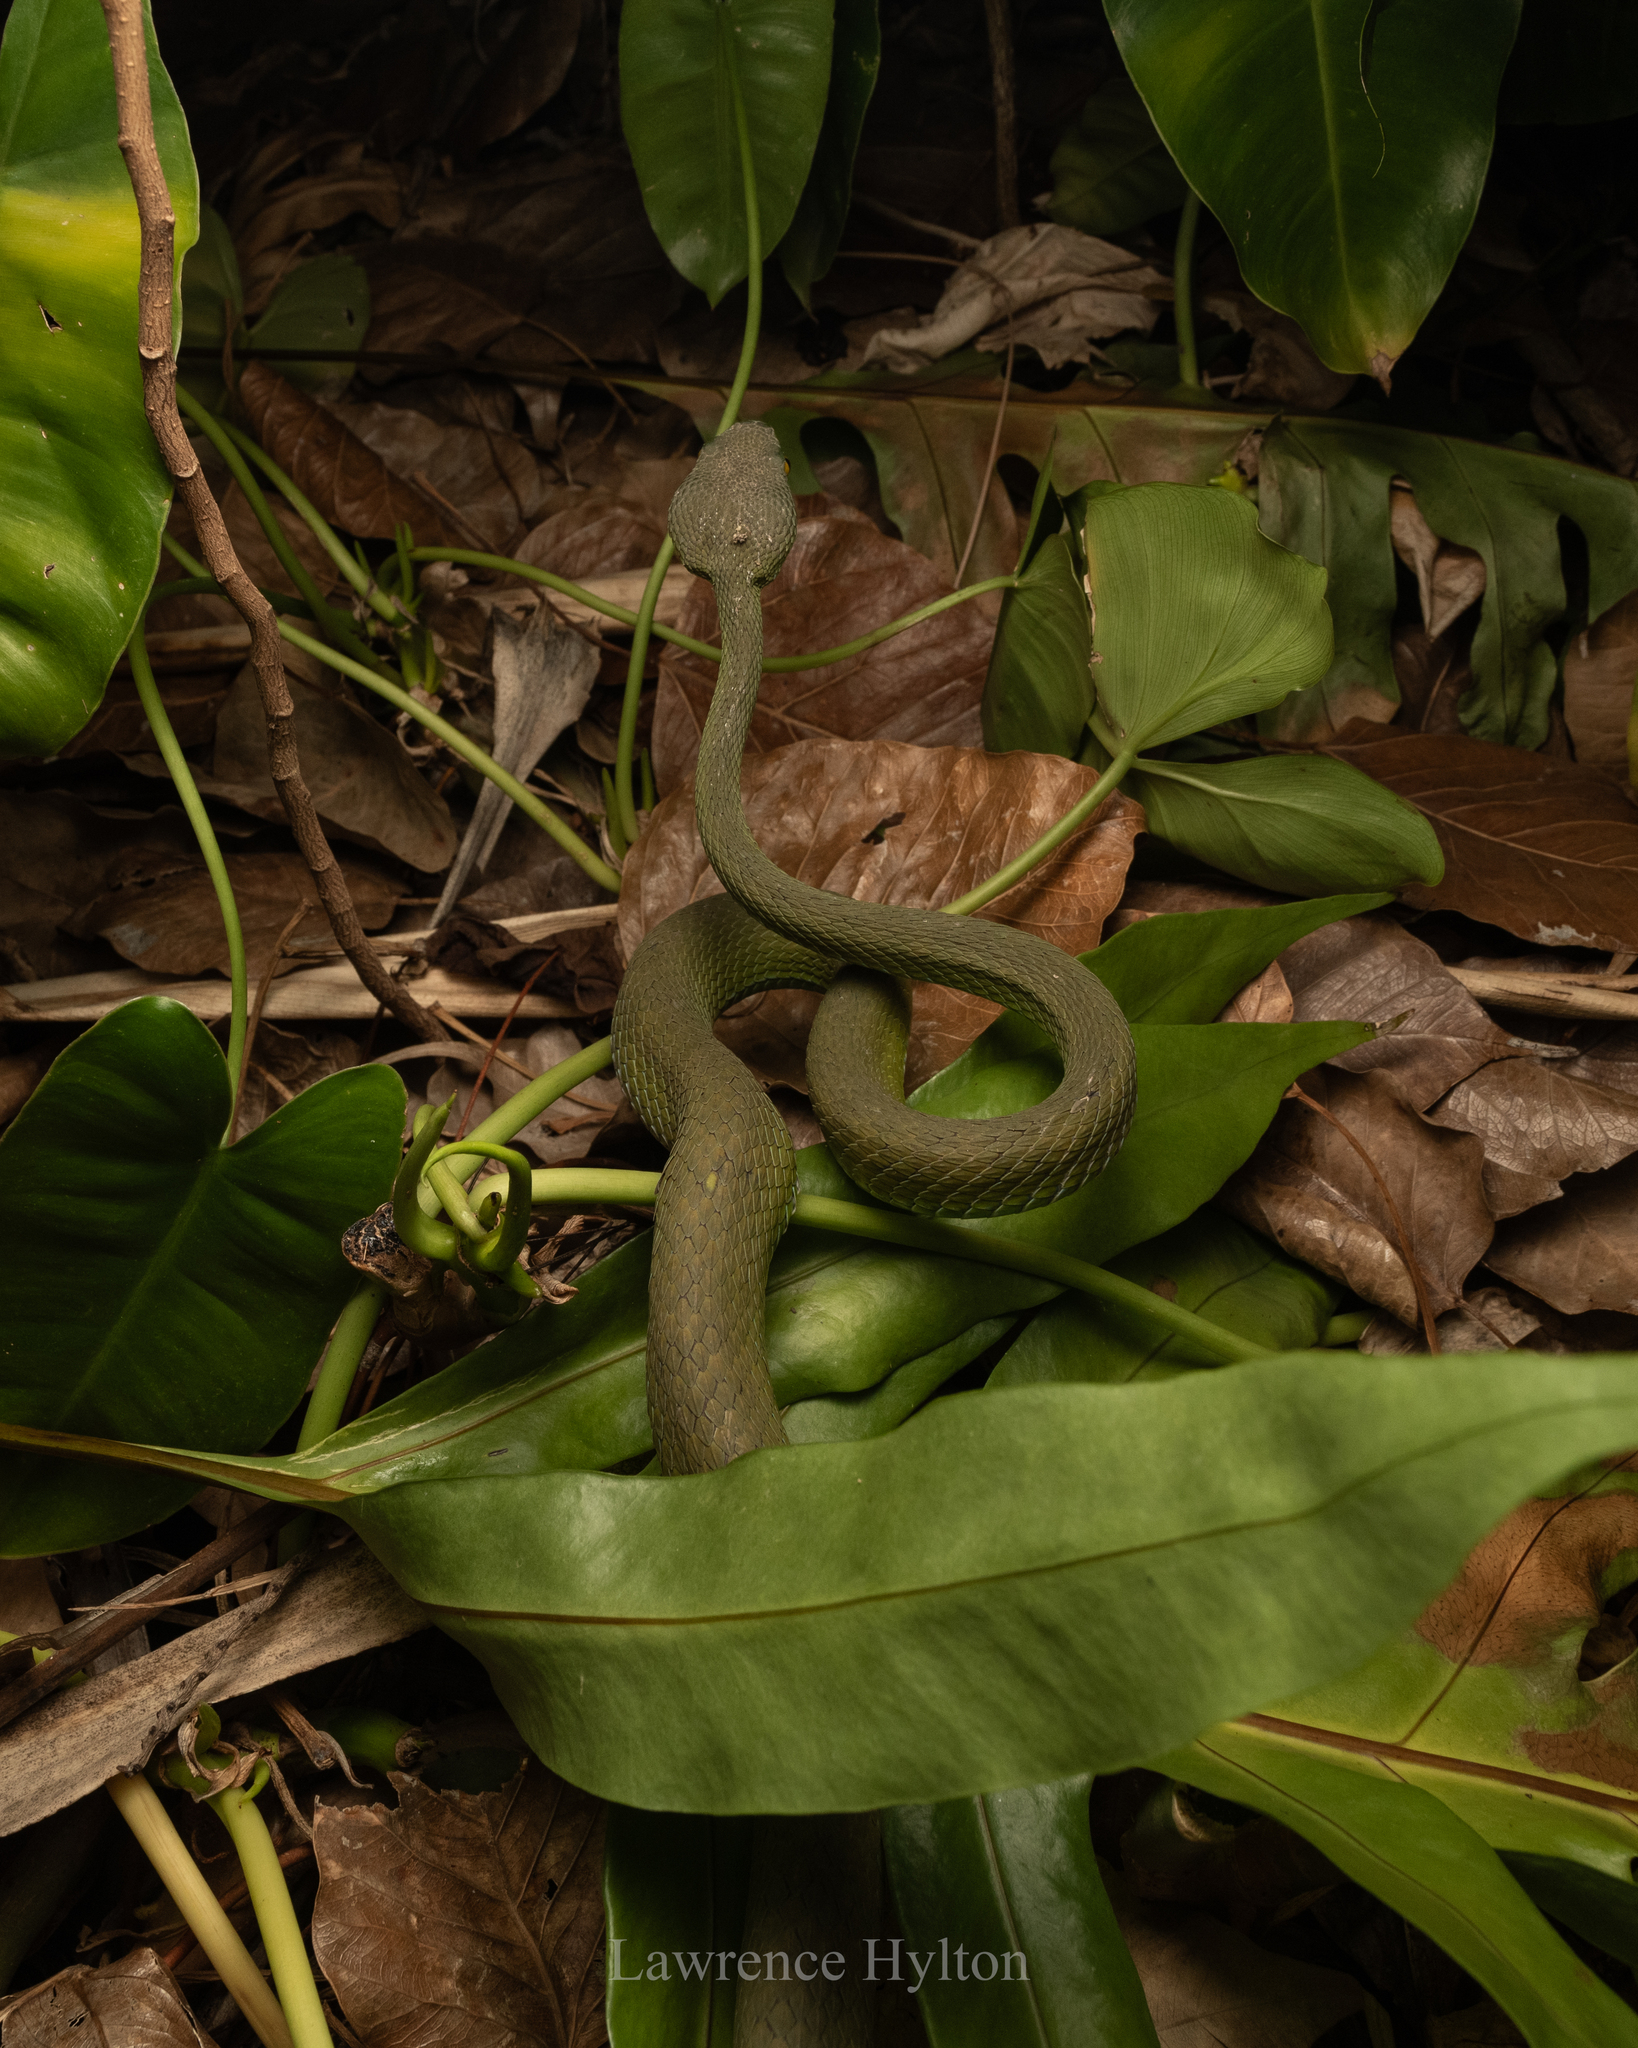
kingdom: Animalia
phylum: Chordata
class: Squamata
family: Viperidae
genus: Trimeresurus
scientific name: Trimeresurus macrops
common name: Kramer's pit viper
